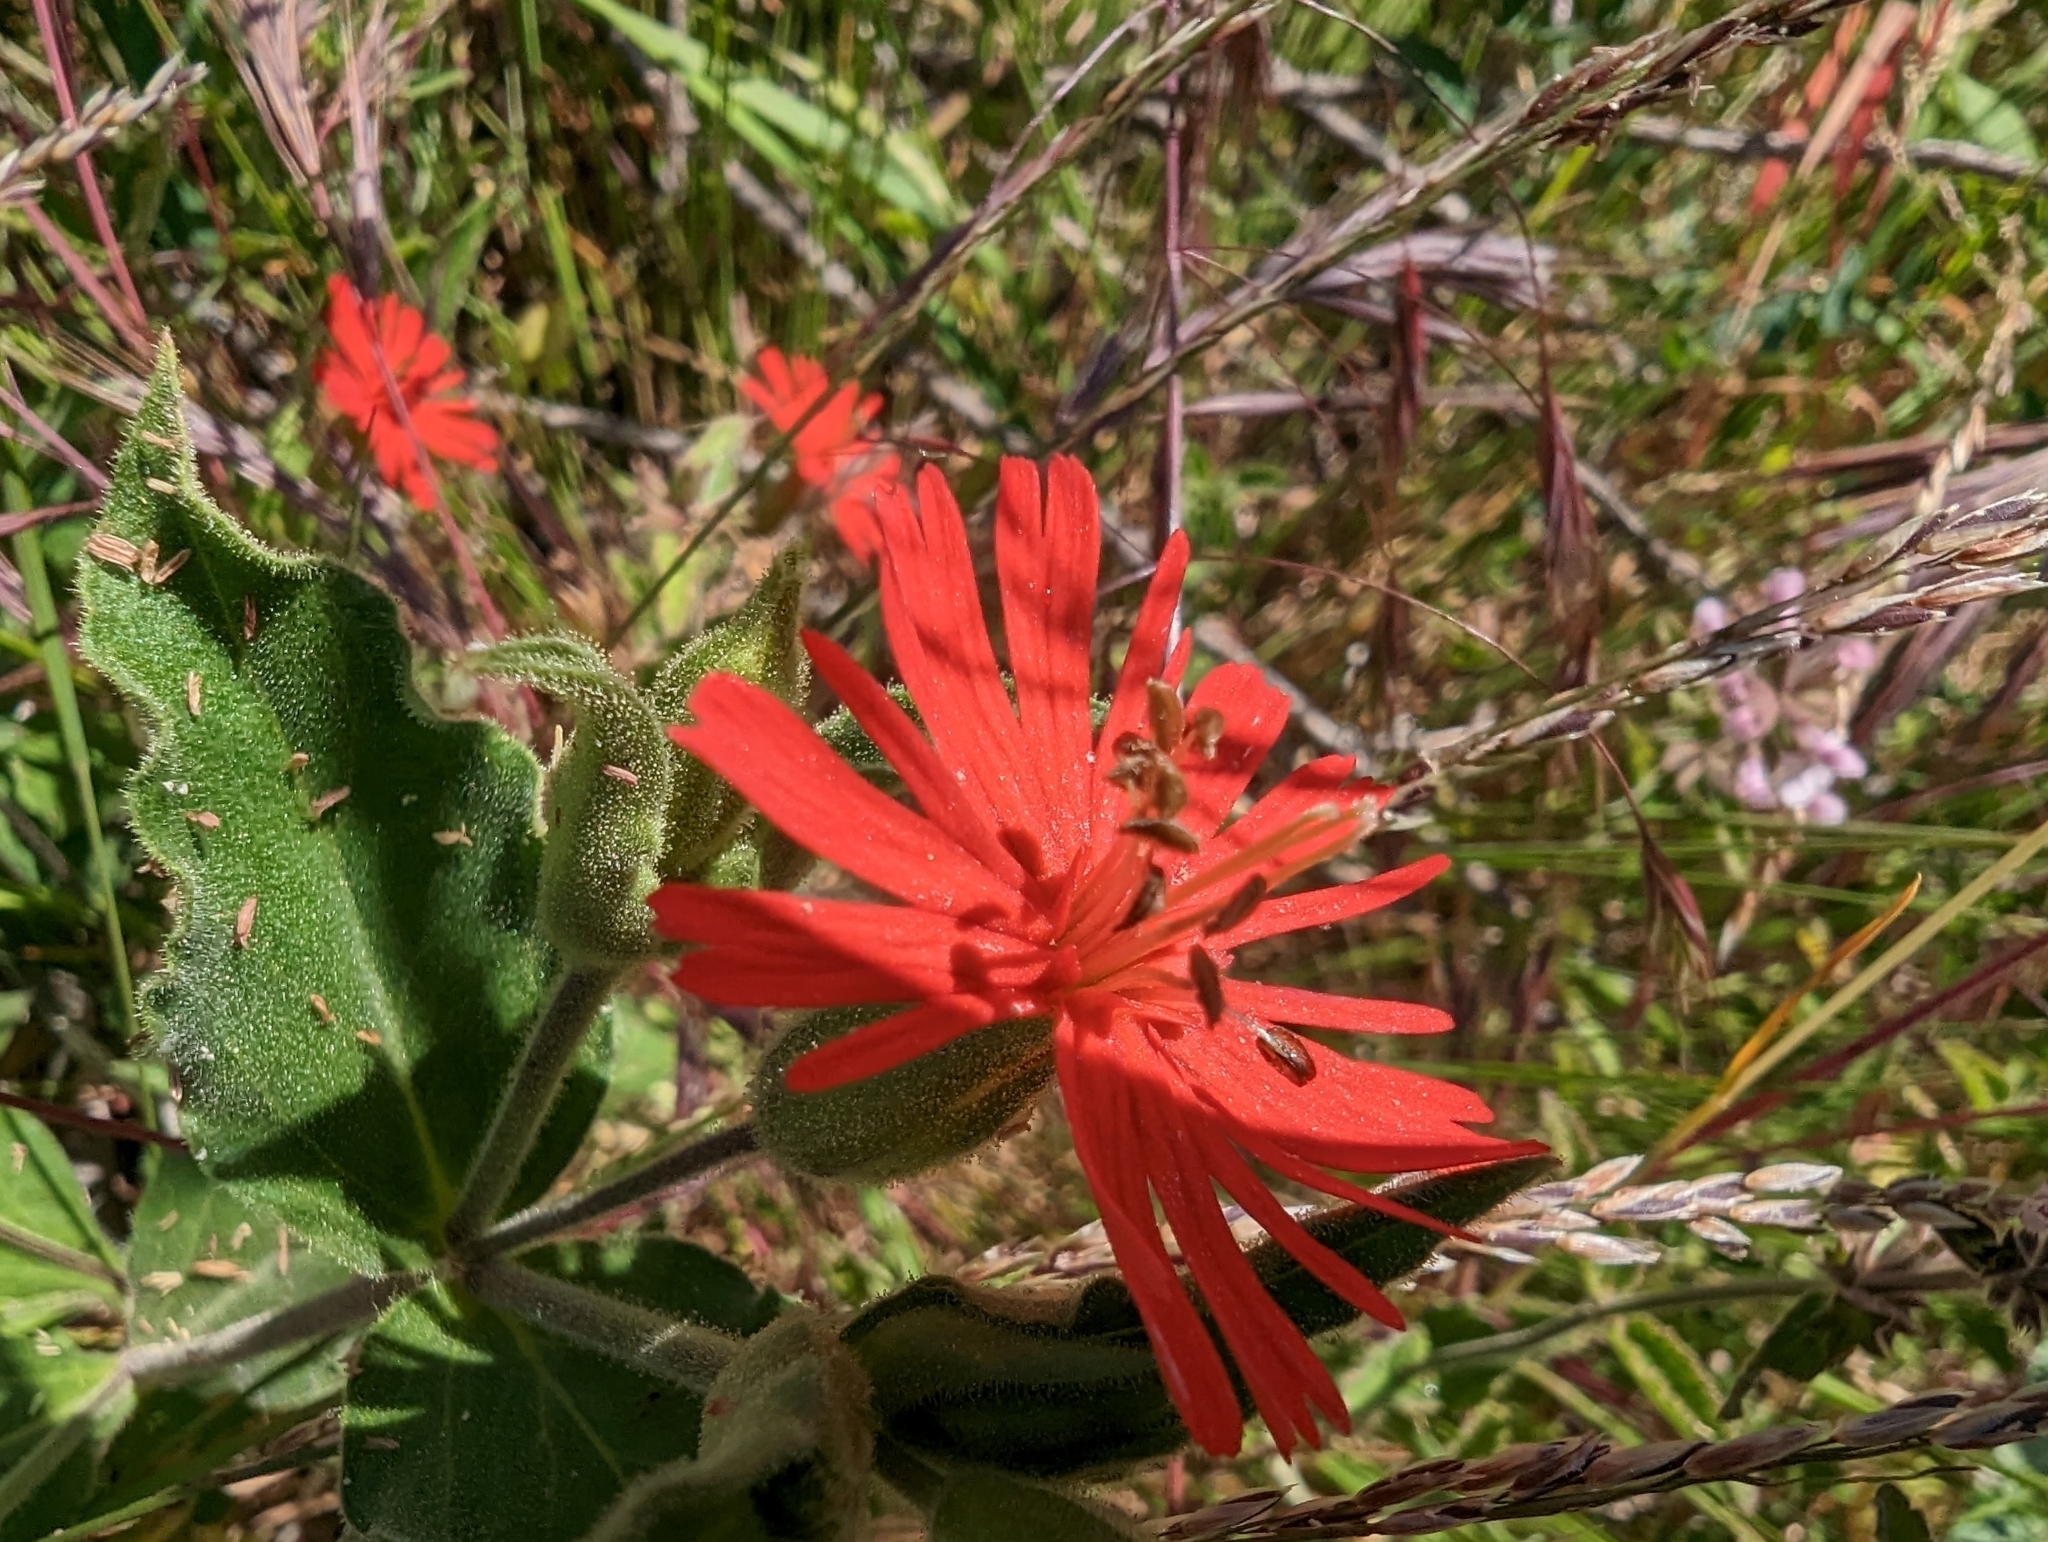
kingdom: Plantae
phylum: Tracheophyta
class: Magnoliopsida
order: Caryophyllales
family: Caryophyllaceae
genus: Silene
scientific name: Silene laciniata
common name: Indian-pink
